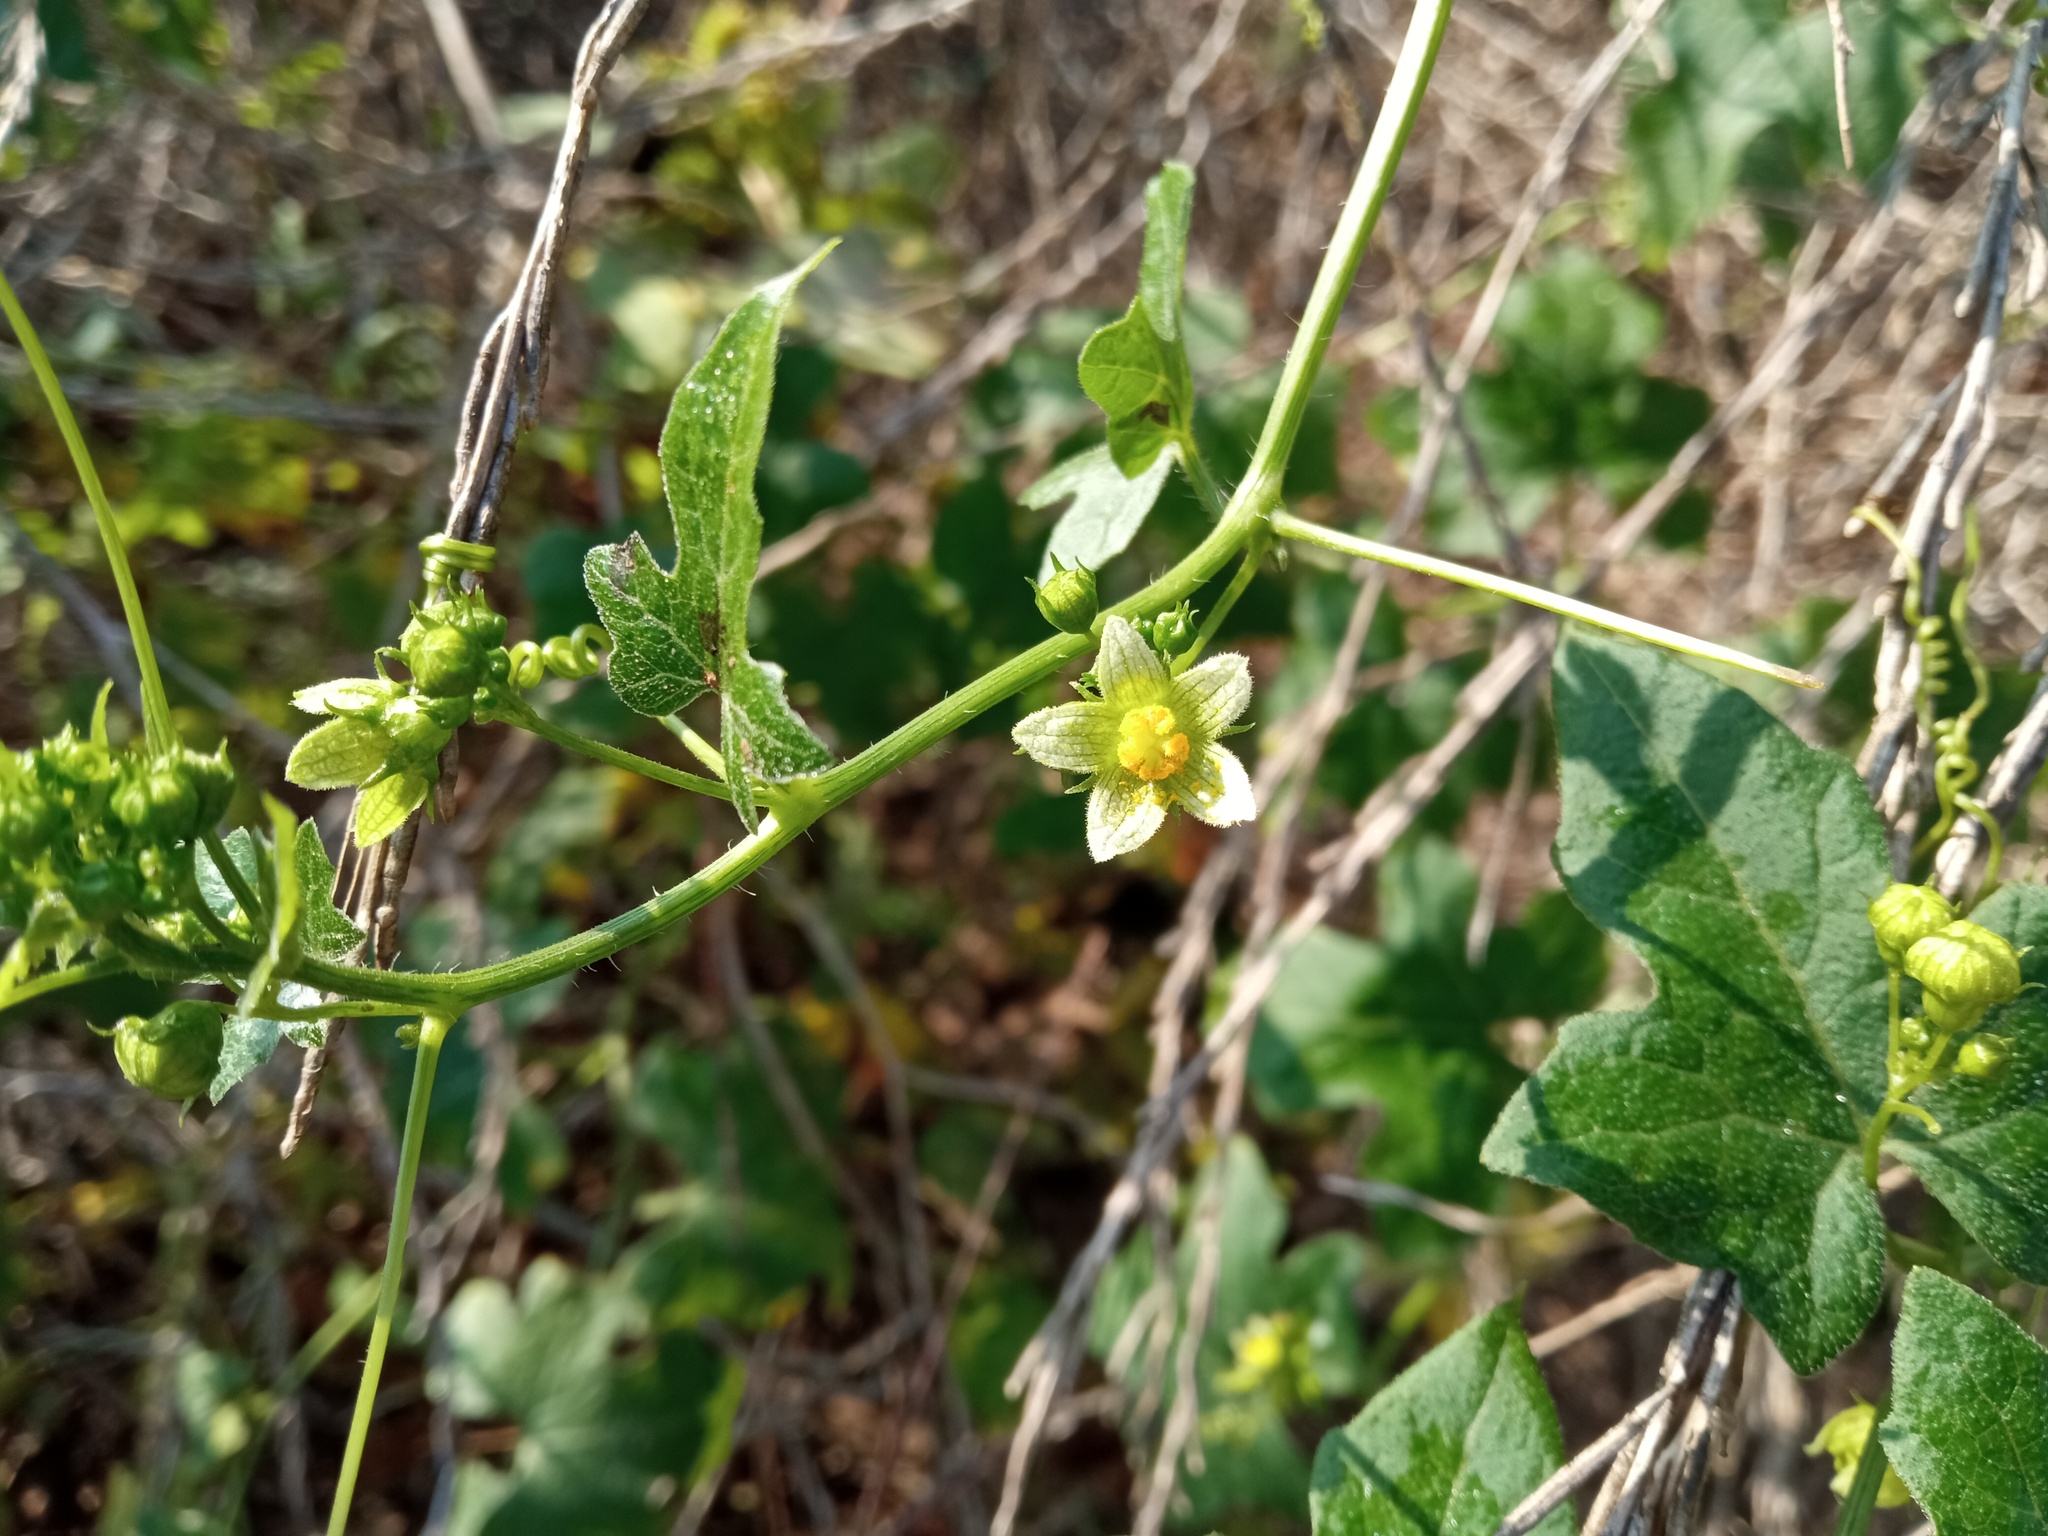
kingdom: Plantae
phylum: Tracheophyta
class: Magnoliopsida
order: Cucurbitales
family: Cucurbitaceae
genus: Bryonia
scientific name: Bryonia dioica
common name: White bryony
